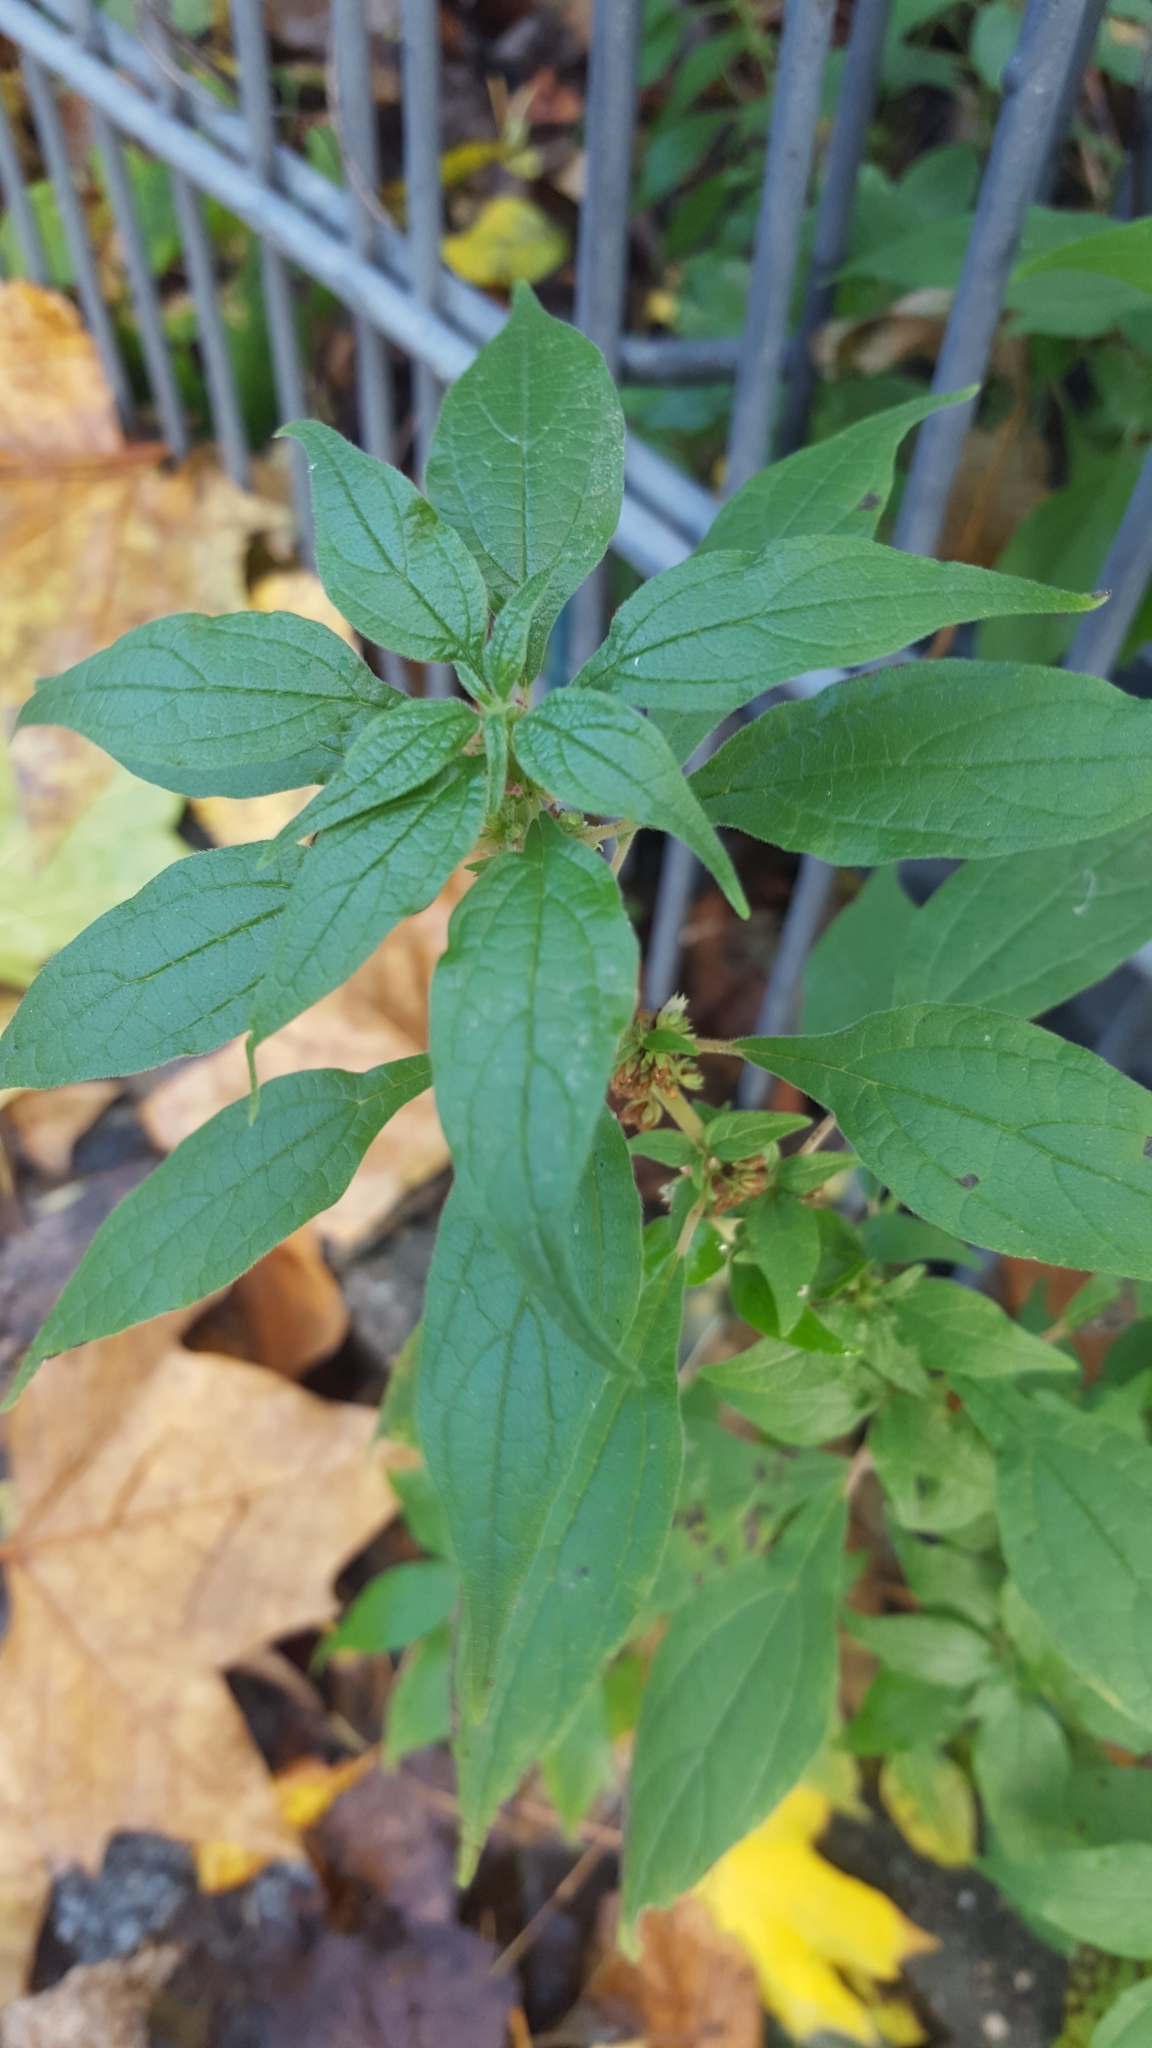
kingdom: Plantae
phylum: Tracheophyta
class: Magnoliopsida
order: Rosales
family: Urticaceae
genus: Parietaria
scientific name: Parietaria officinalis
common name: Eastern pellitory-of-the-wall
